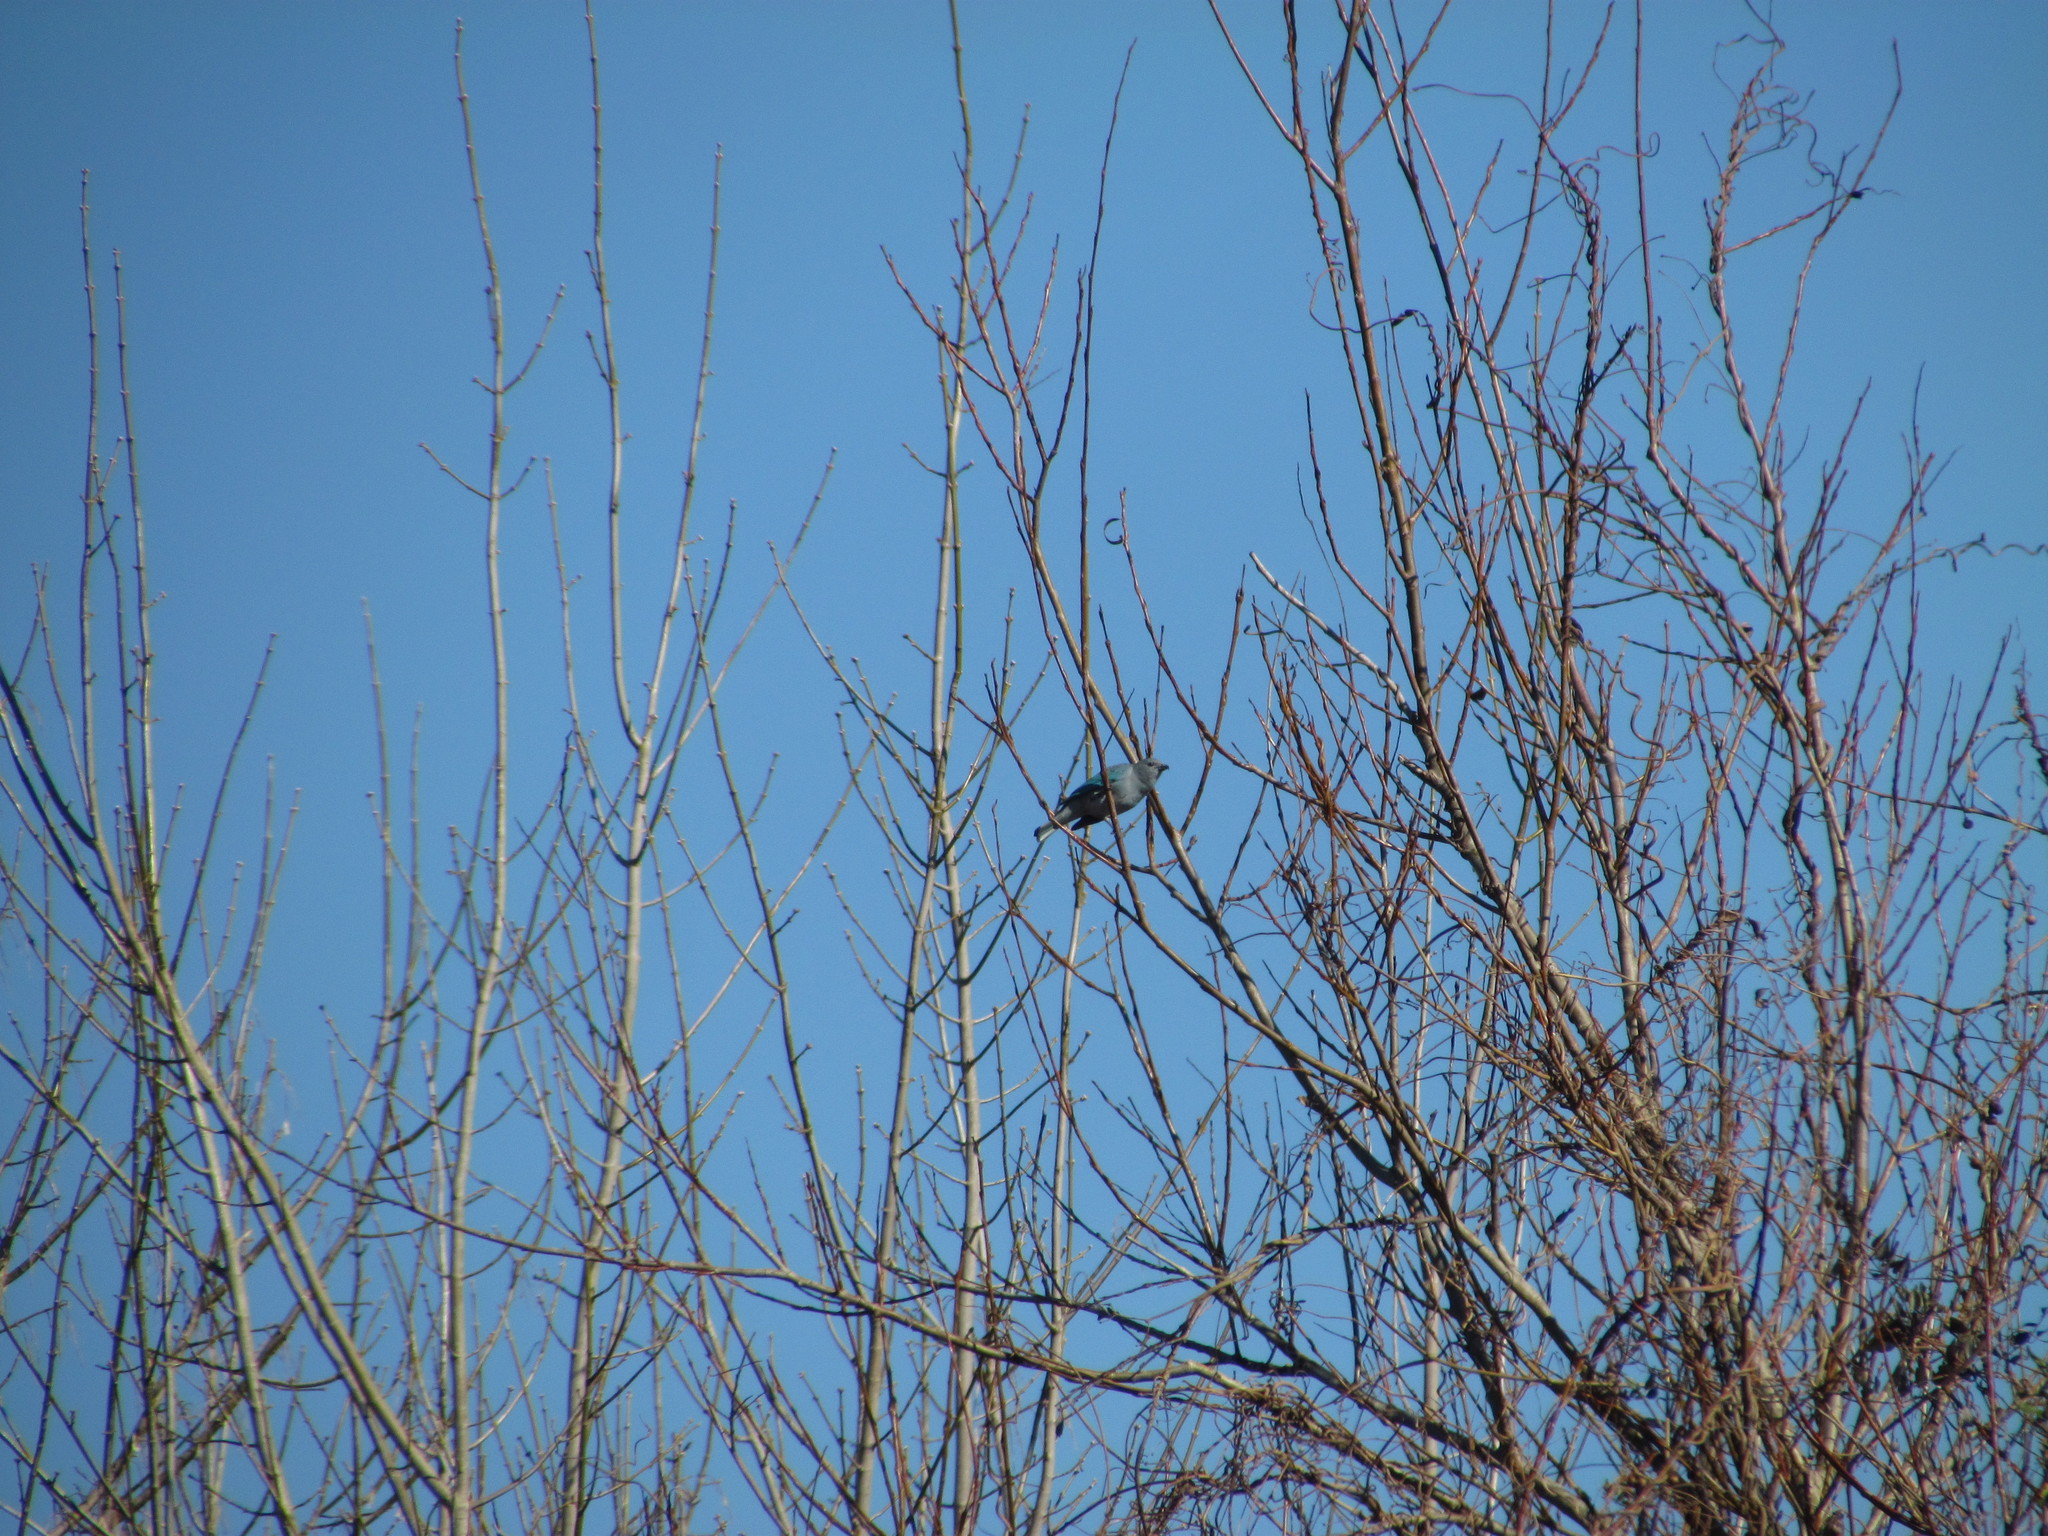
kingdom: Animalia
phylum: Chordata
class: Aves
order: Passeriformes
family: Thraupidae
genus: Thraupis
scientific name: Thraupis sayaca
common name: Sayaca tanager
